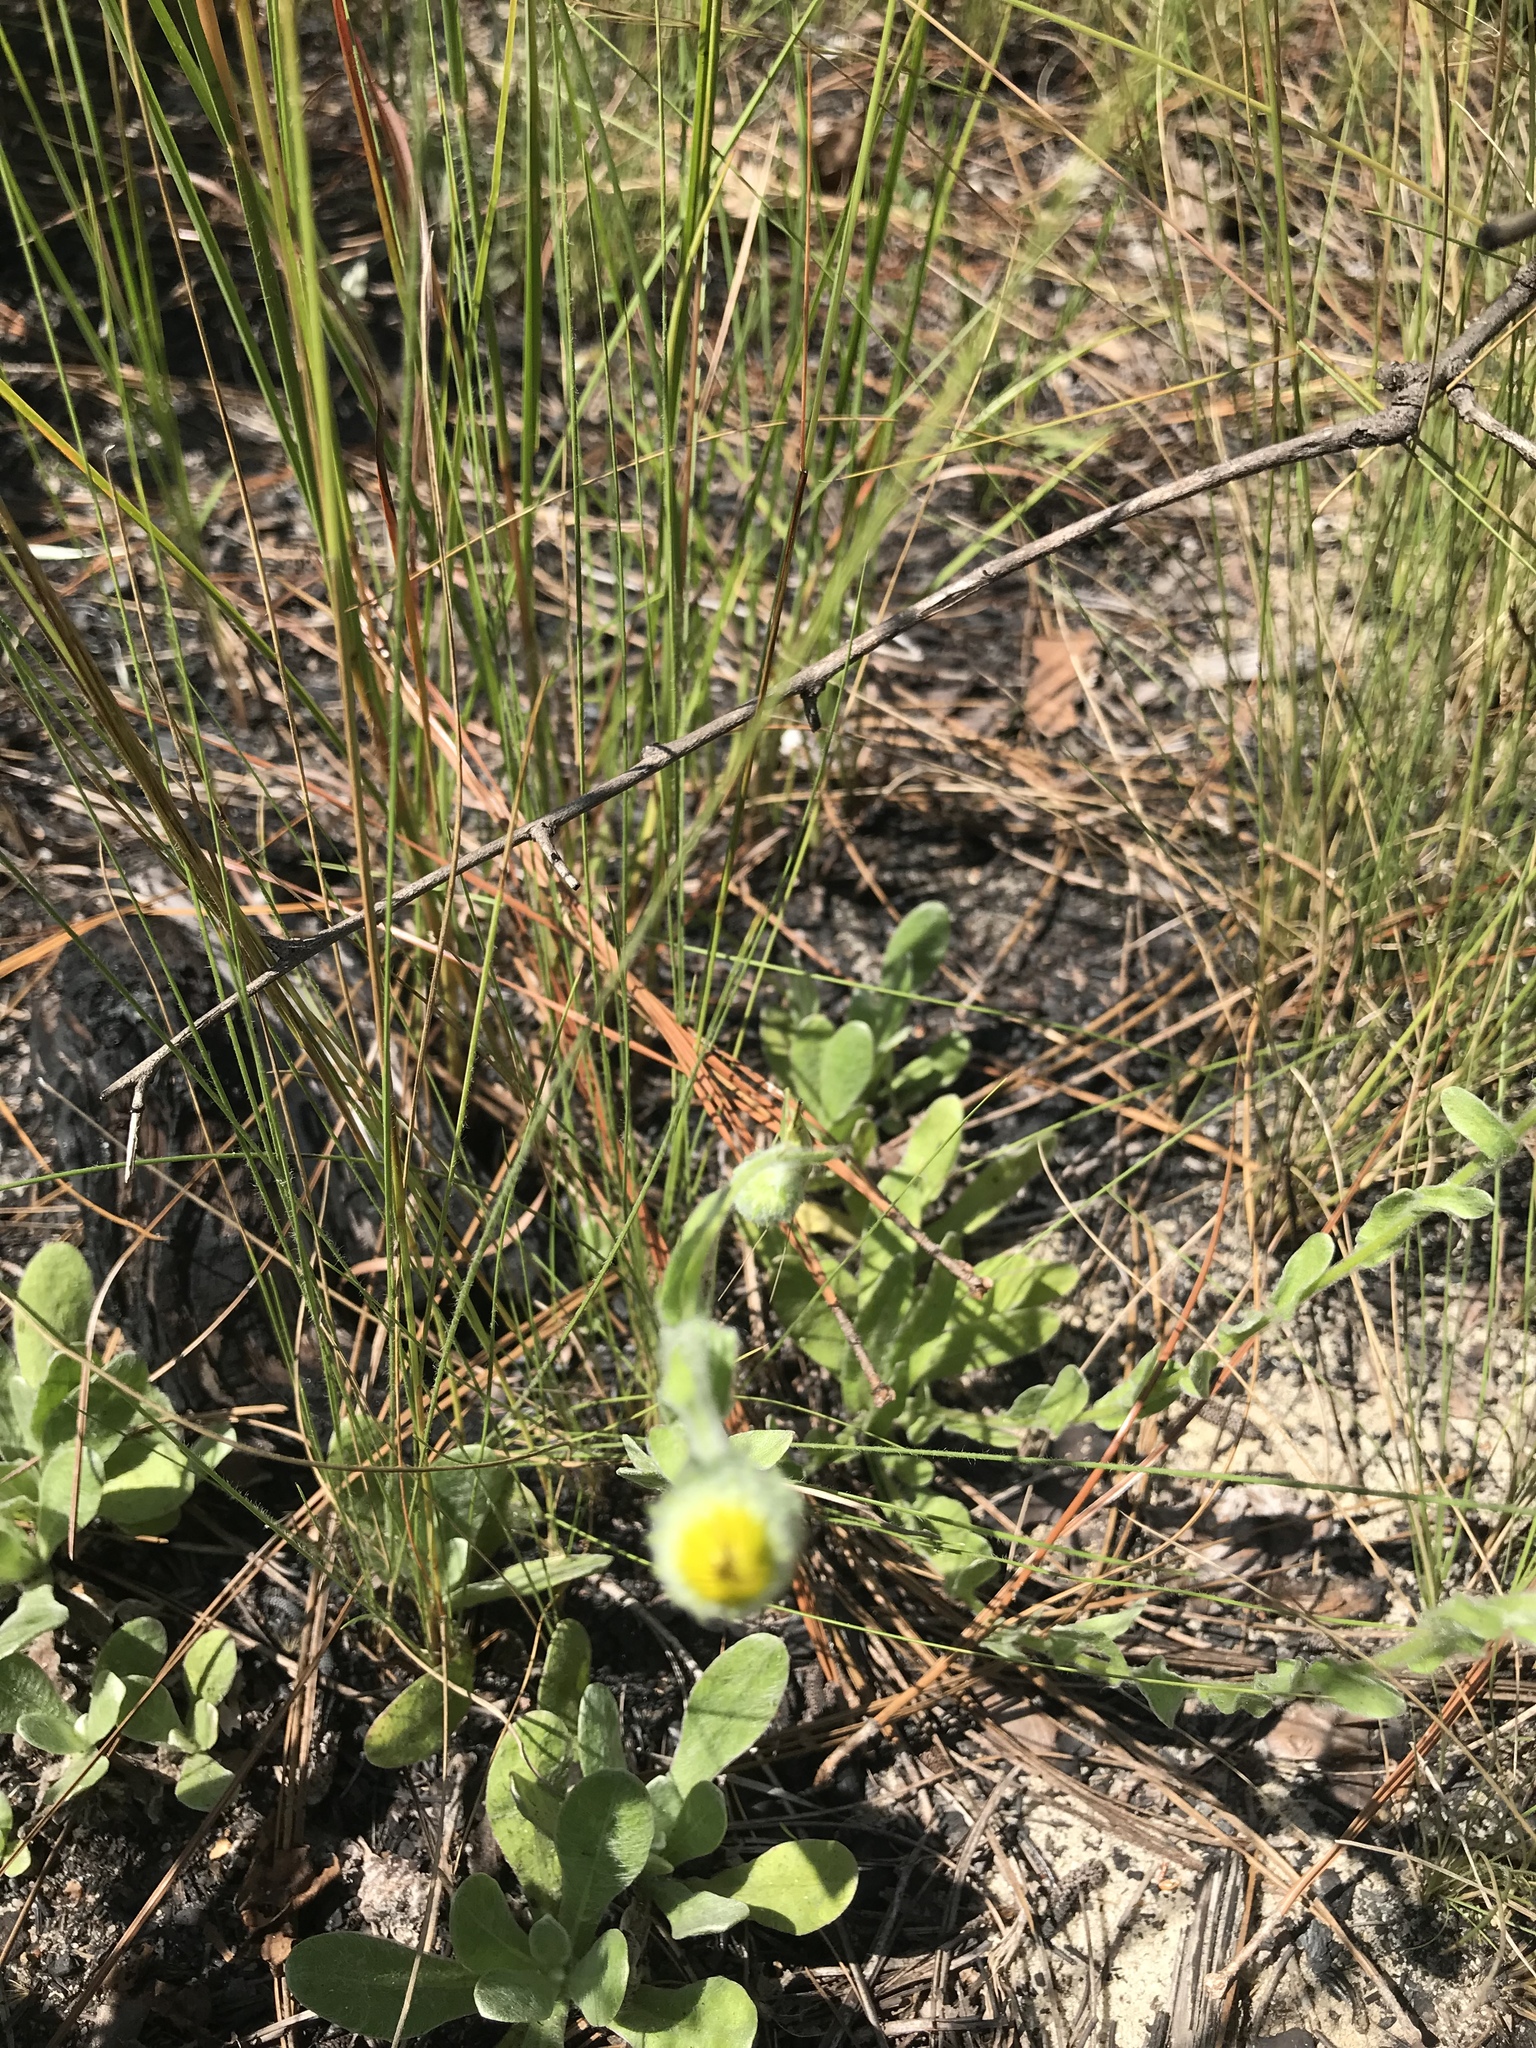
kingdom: Plantae
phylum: Tracheophyta
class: Magnoliopsida
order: Asterales
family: Asteraceae
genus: Chrysopsis
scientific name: Chrysopsis gossypina
